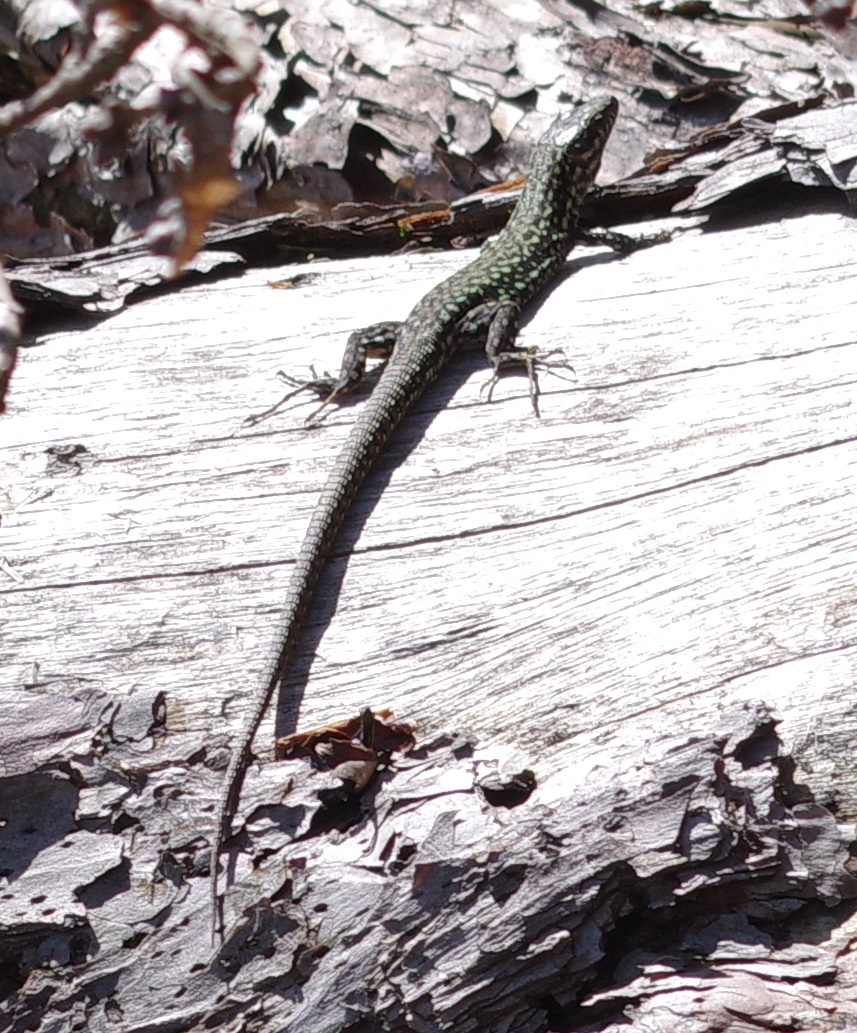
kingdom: Animalia
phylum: Chordata
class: Squamata
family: Lacertidae
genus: Podarcis
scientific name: Podarcis muralis
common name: Common wall lizard
